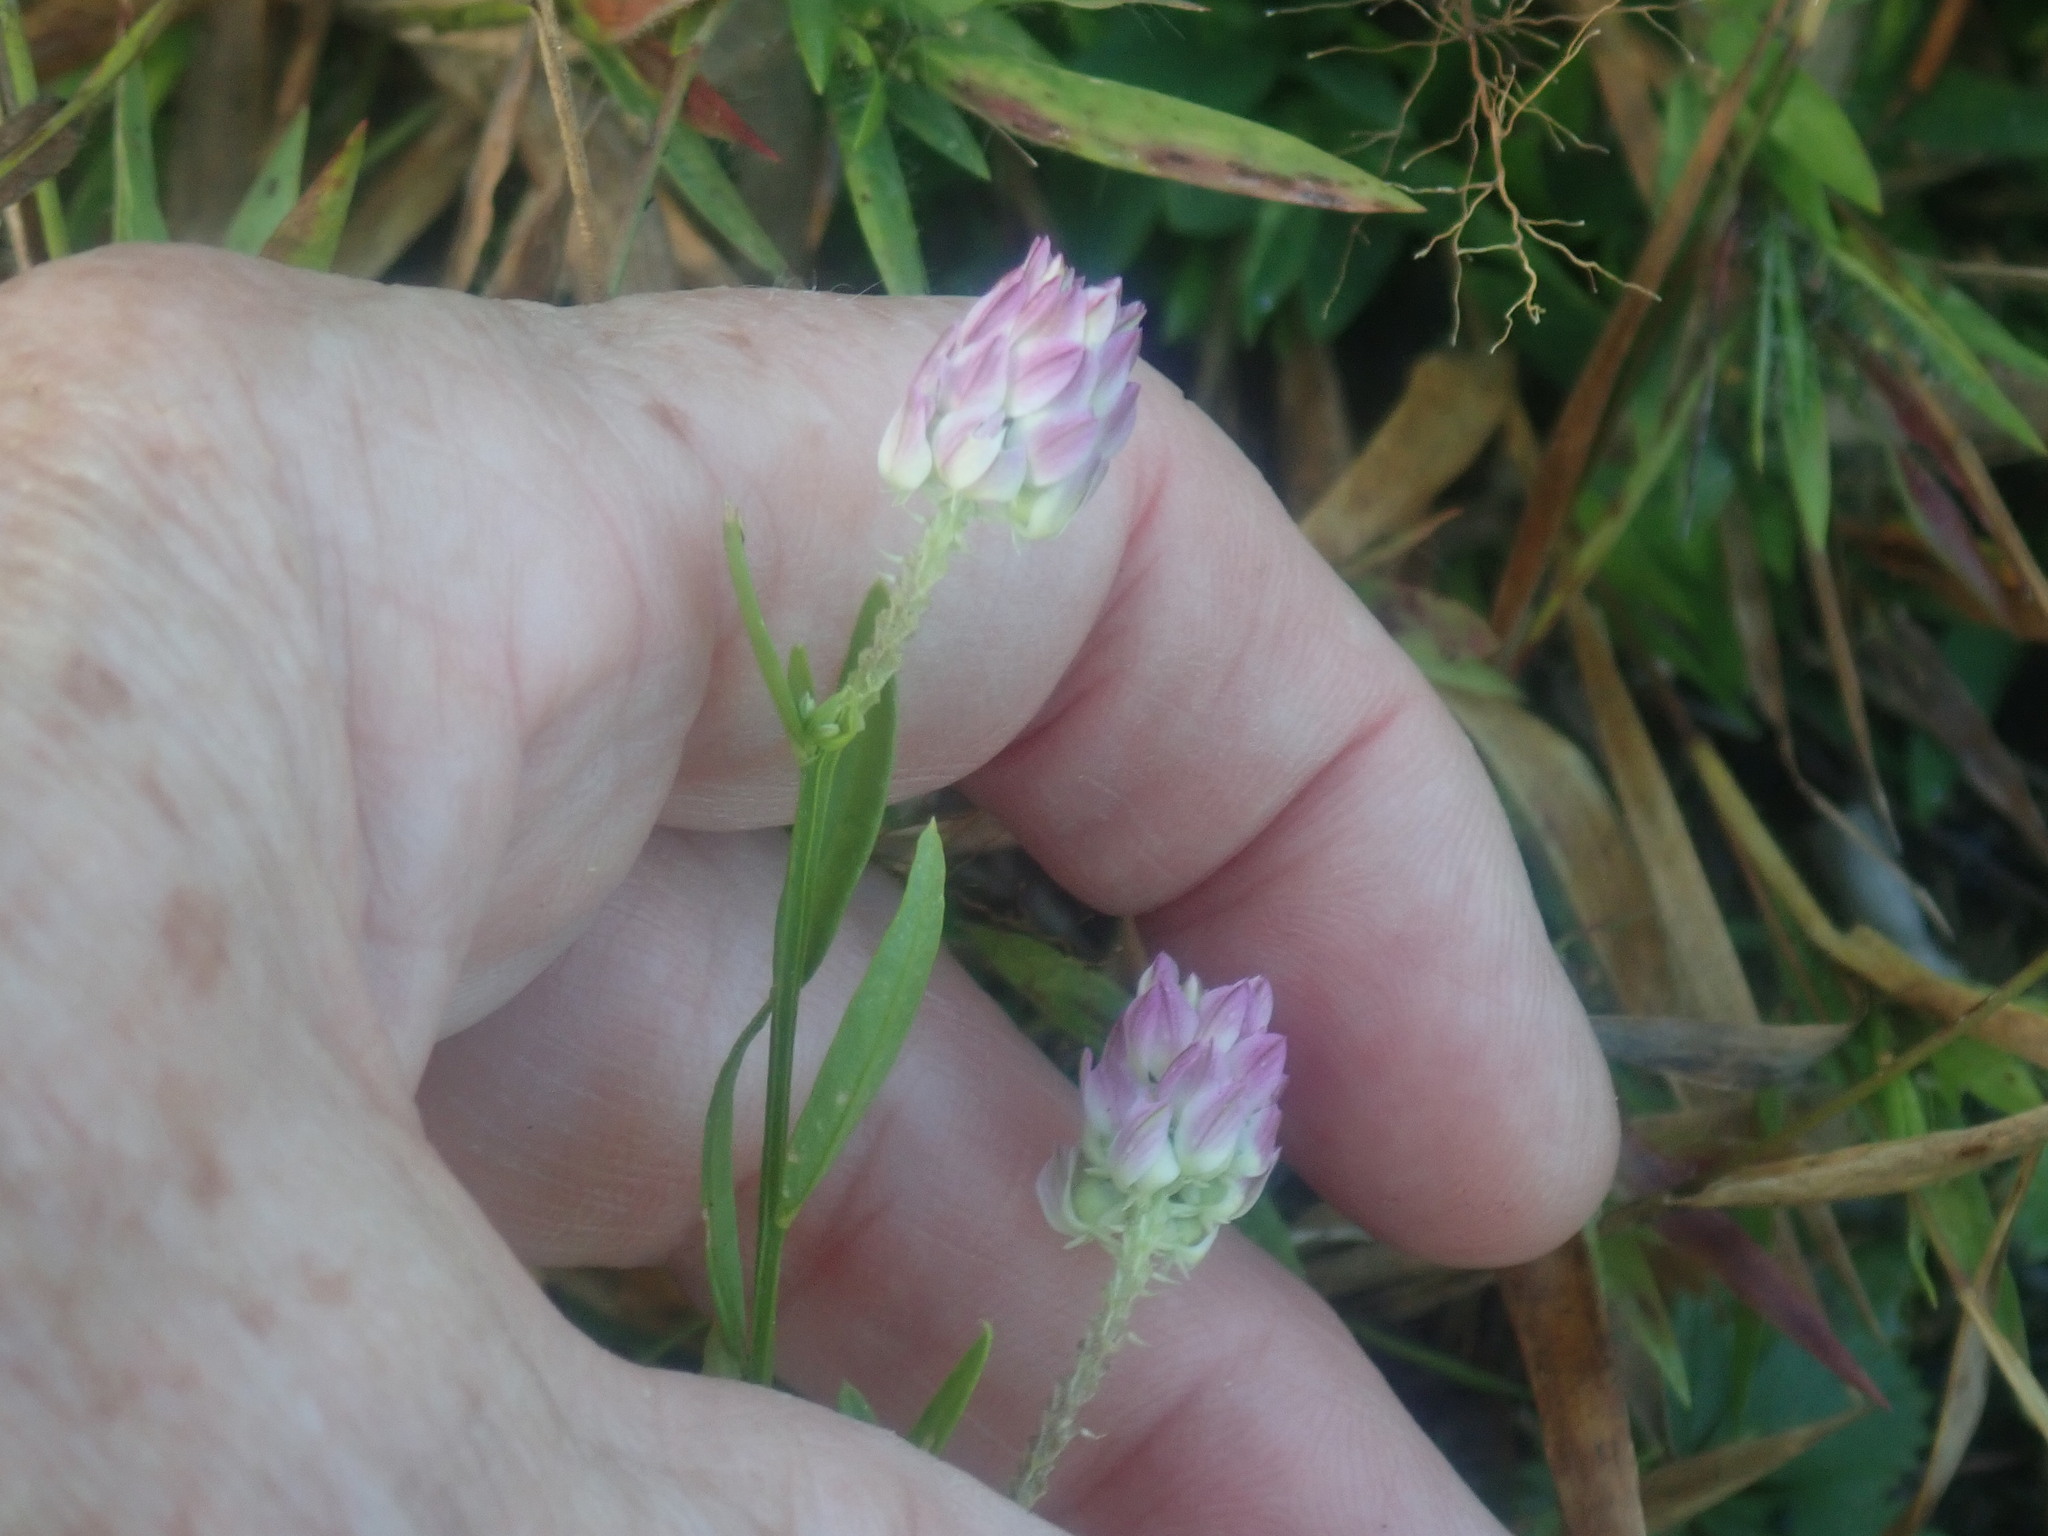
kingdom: Plantae
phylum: Tracheophyta
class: Magnoliopsida
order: Fabales
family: Polygalaceae
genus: Polygala
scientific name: Polygala sanguinea
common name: Blood milkwort
